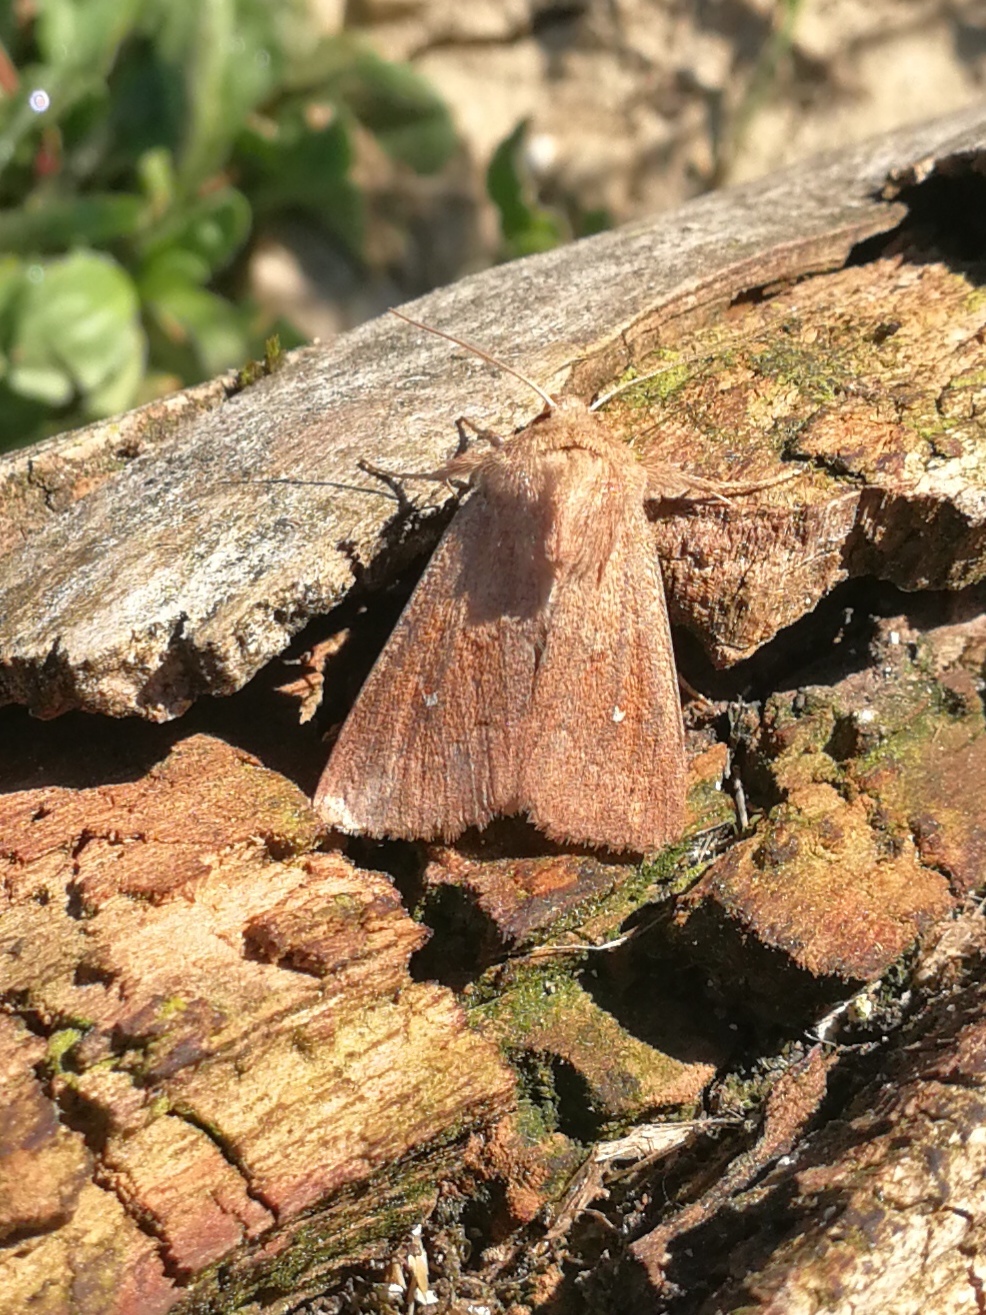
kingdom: Animalia
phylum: Arthropoda
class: Insecta
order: Lepidoptera
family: Noctuidae
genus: Mythimna
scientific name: Mythimna albipuncta
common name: White-point
